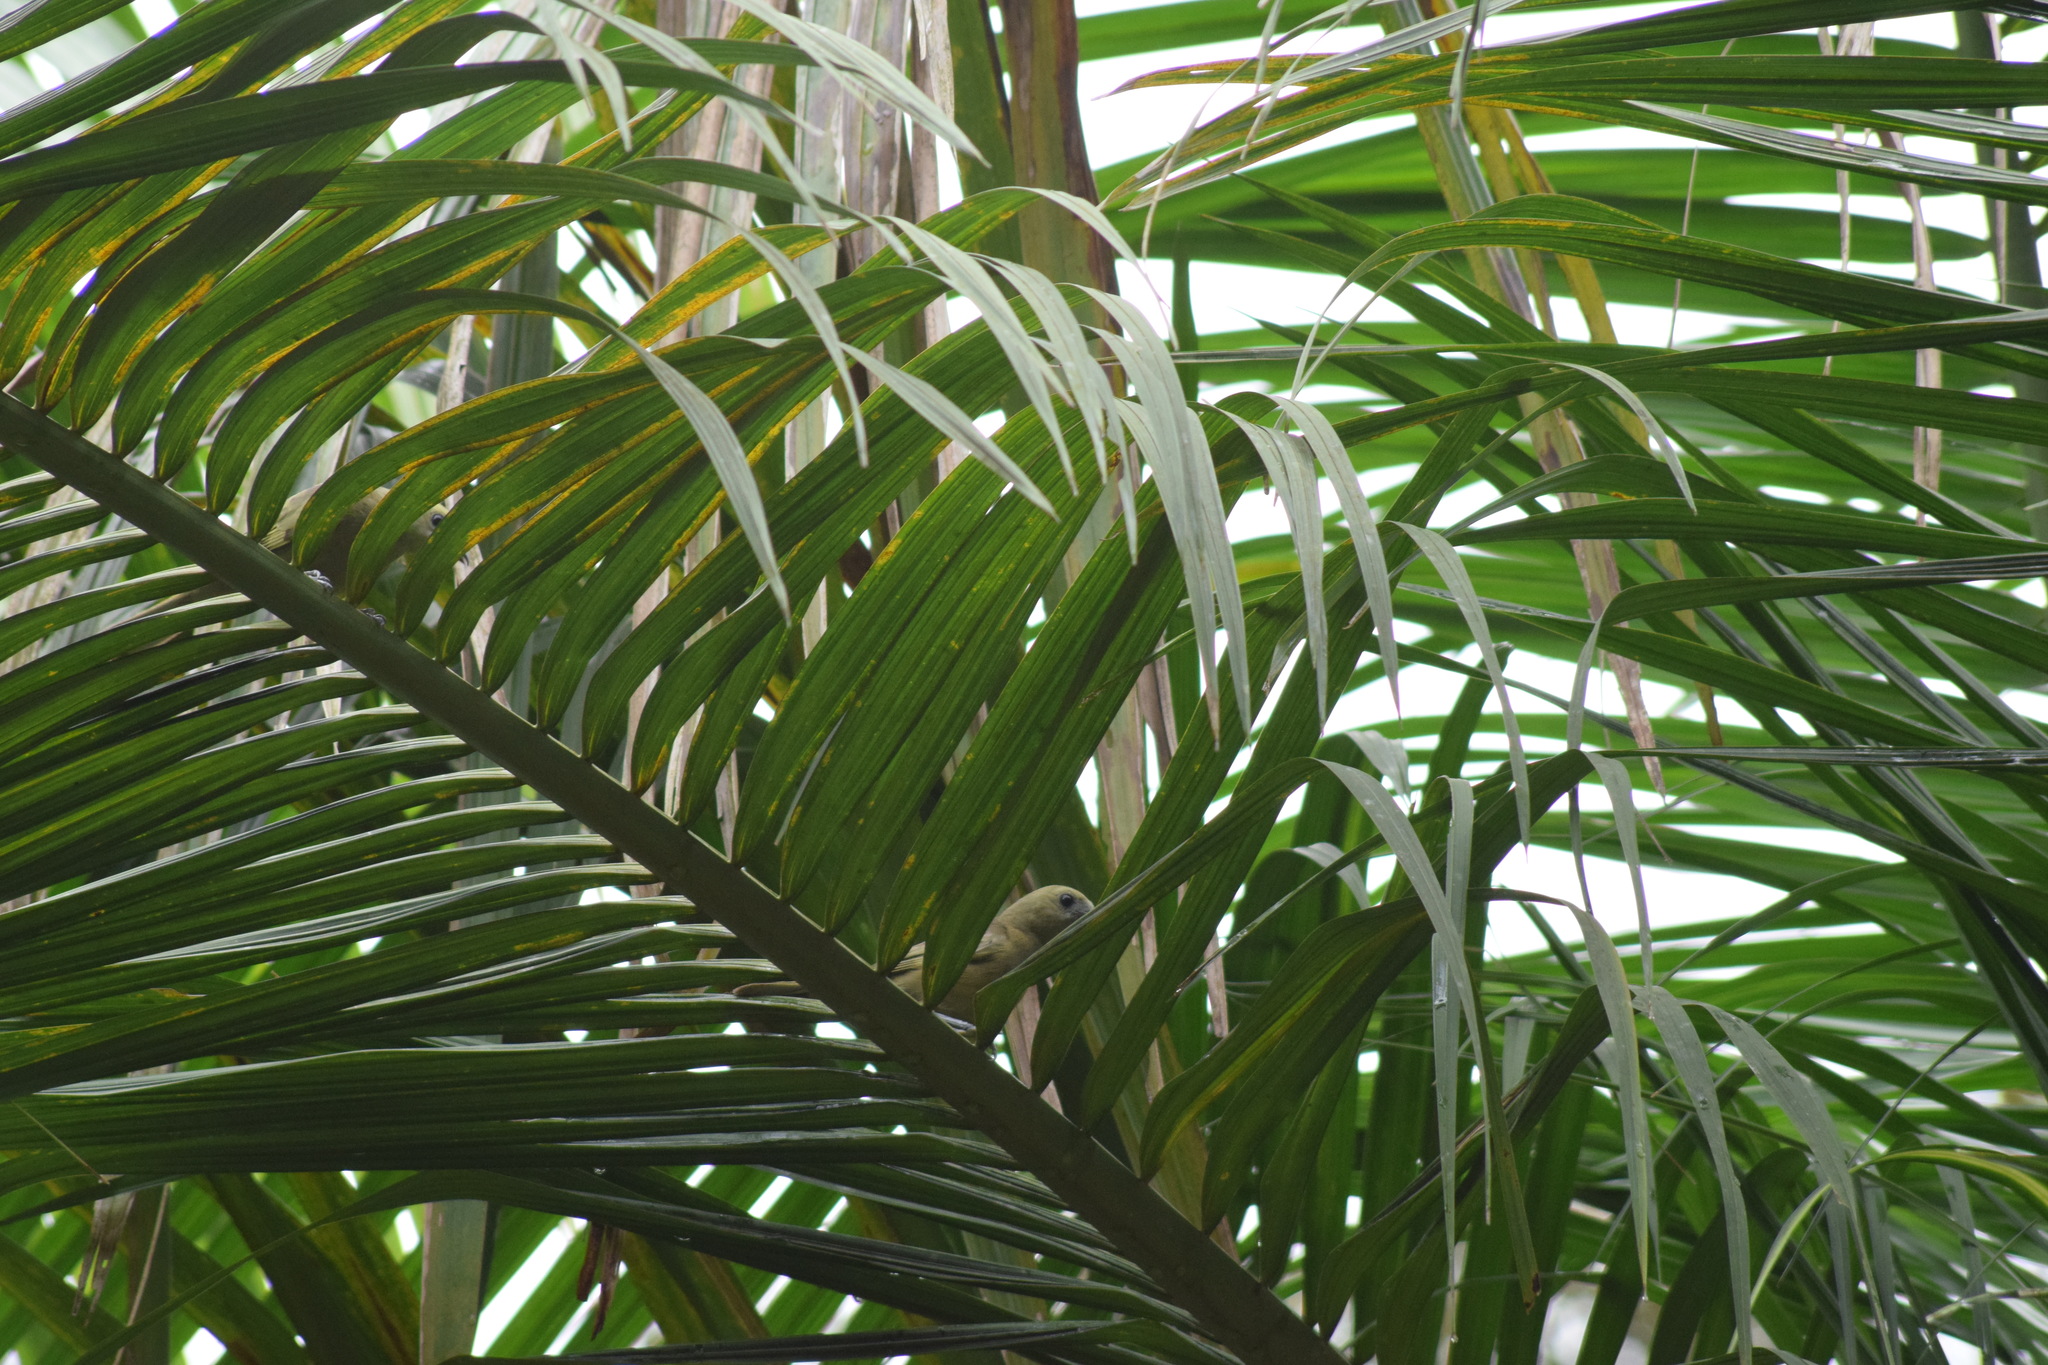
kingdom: Animalia
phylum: Chordata
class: Aves
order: Passeriformes
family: Thraupidae
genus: Thraupis
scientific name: Thraupis palmarum
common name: Palm tanager
